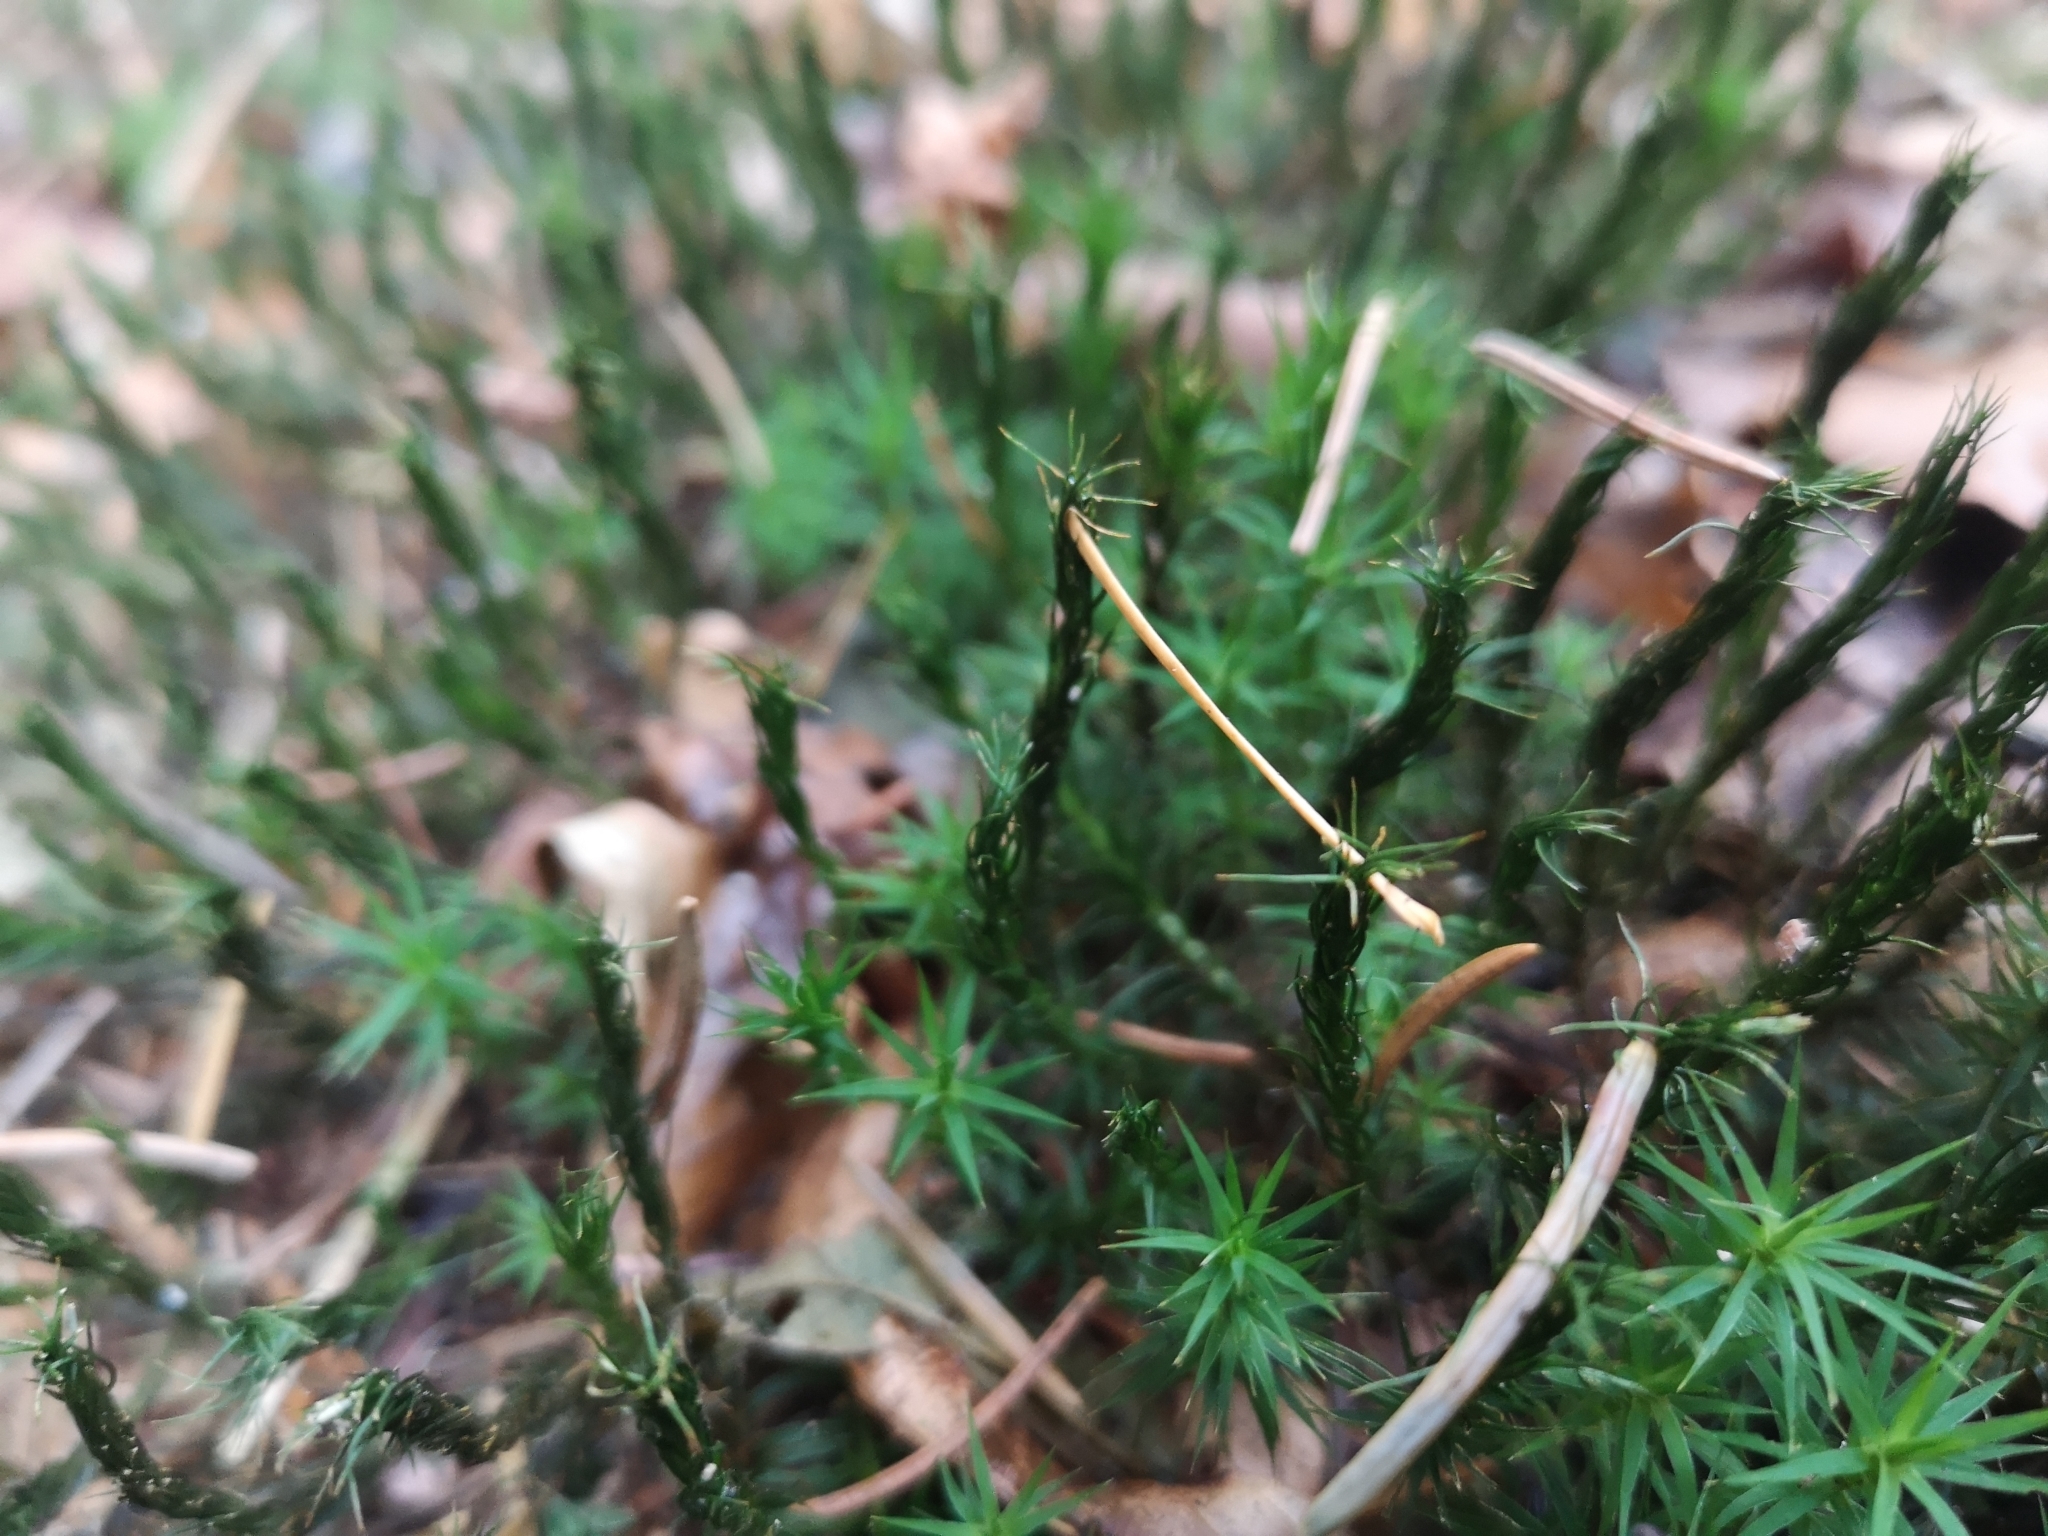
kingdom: Plantae
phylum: Bryophyta
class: Polytrichopsida
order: Polytrichales
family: Polytrichaceae
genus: Polytrichum
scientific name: Polytrichum formosum
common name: Bank haircap moss
